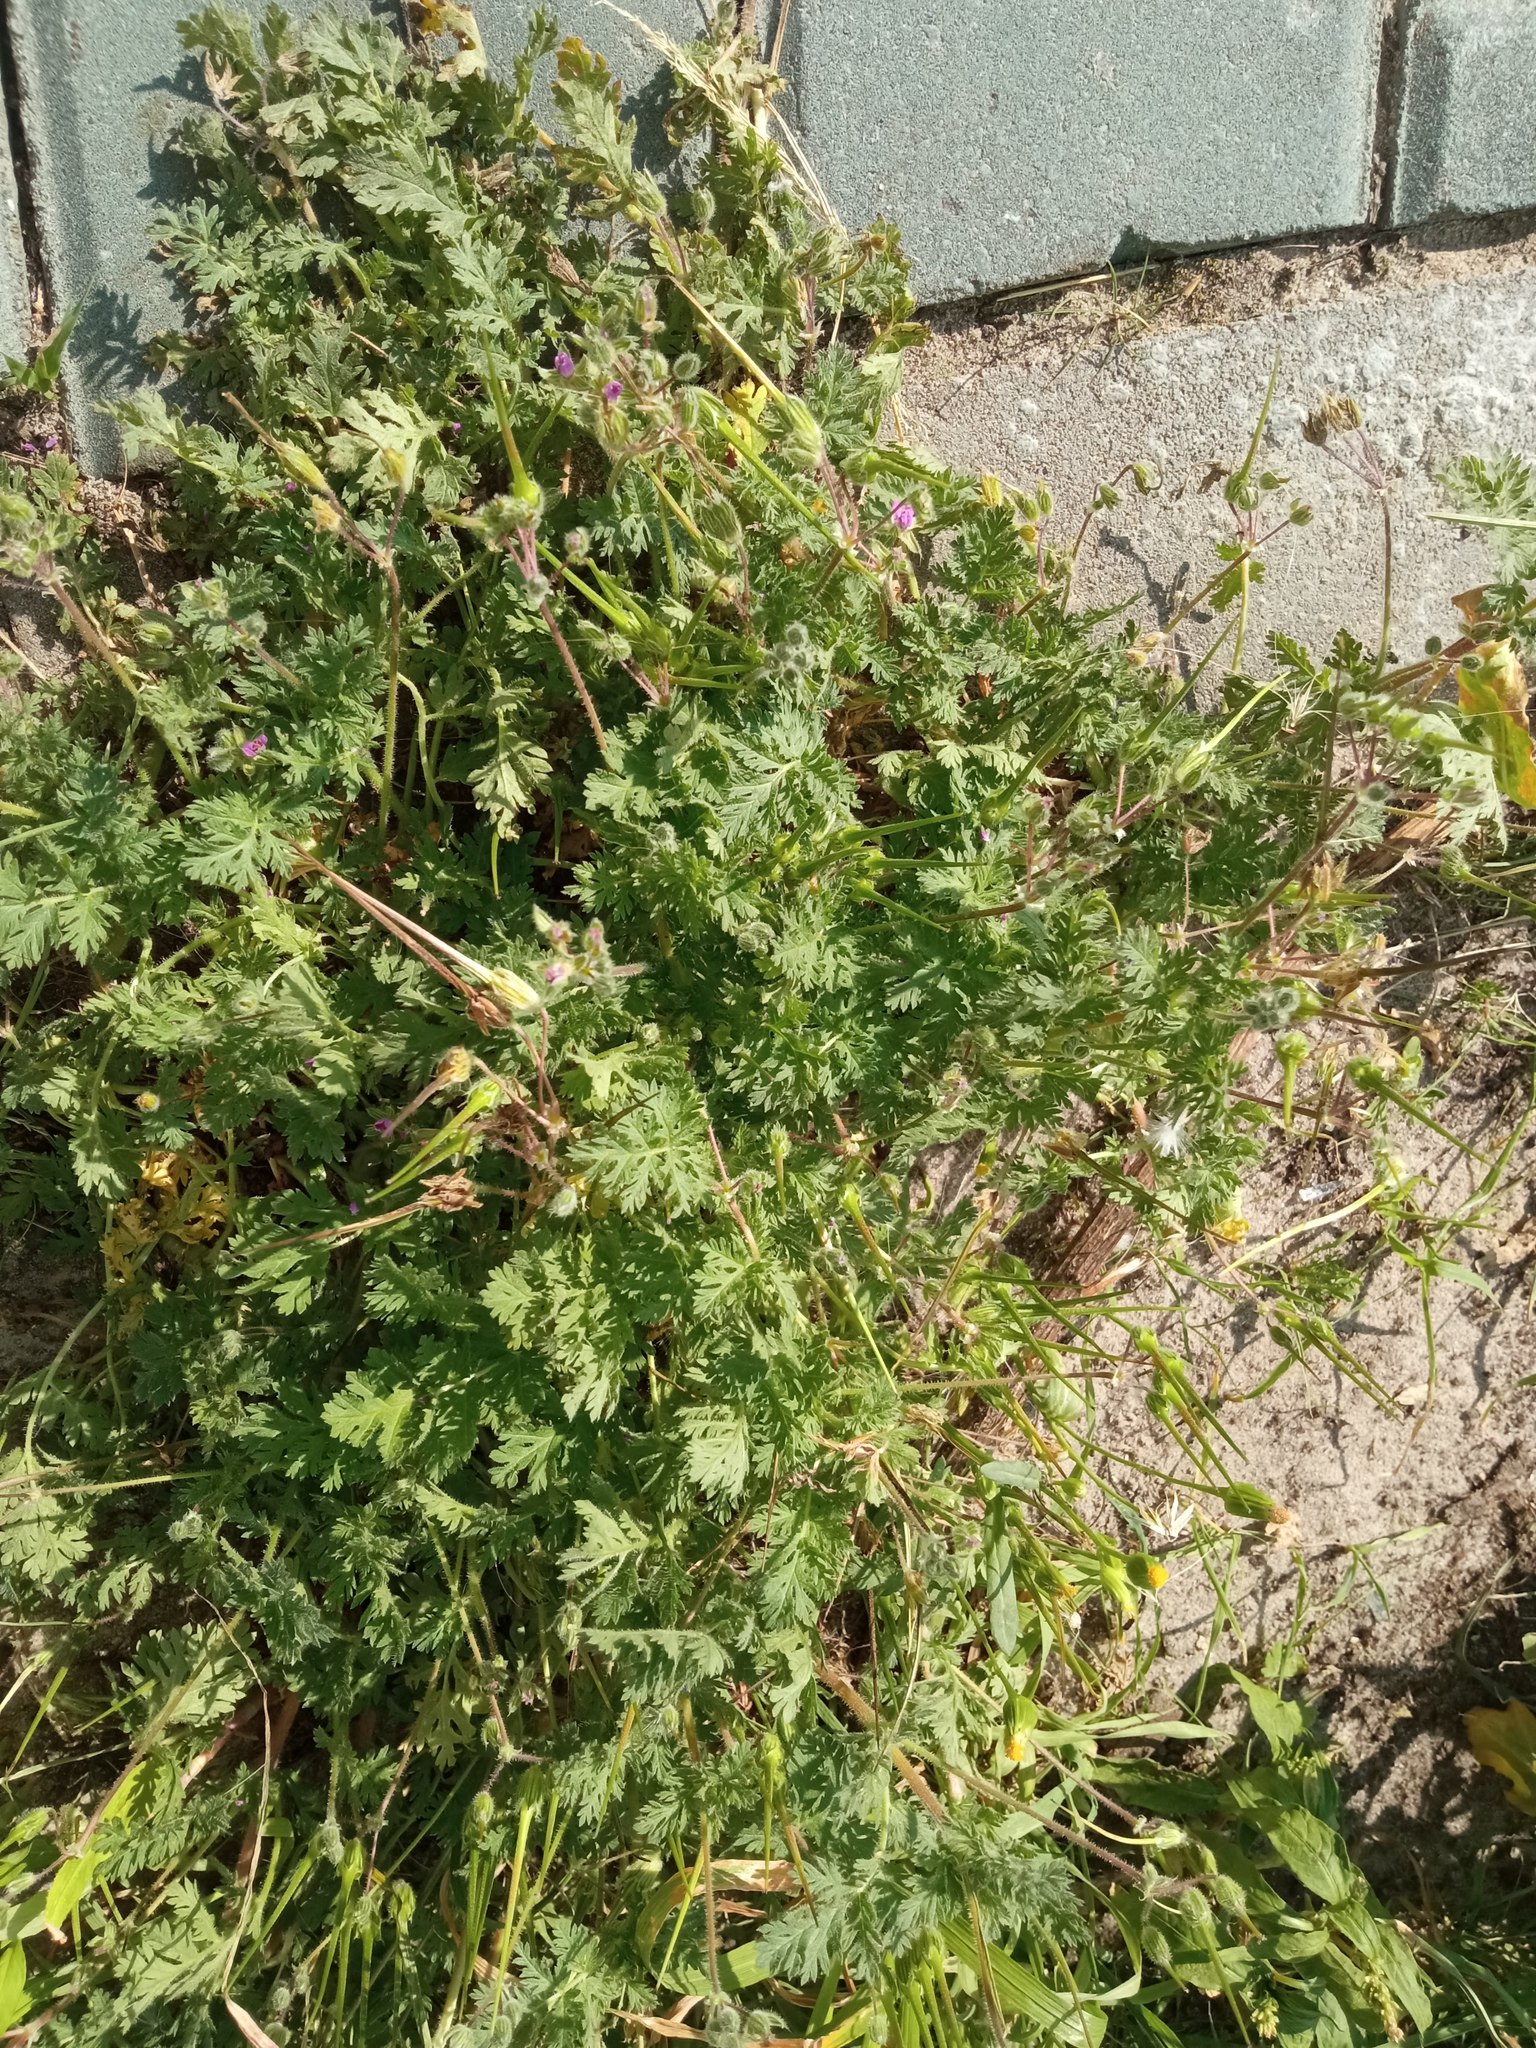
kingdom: Plantae
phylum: Tracheophyta
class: Magnoliopsida
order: Geraniales
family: Geraniaceae
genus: Erodium
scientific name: Erodium cicutarium
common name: Common stork's-bill
